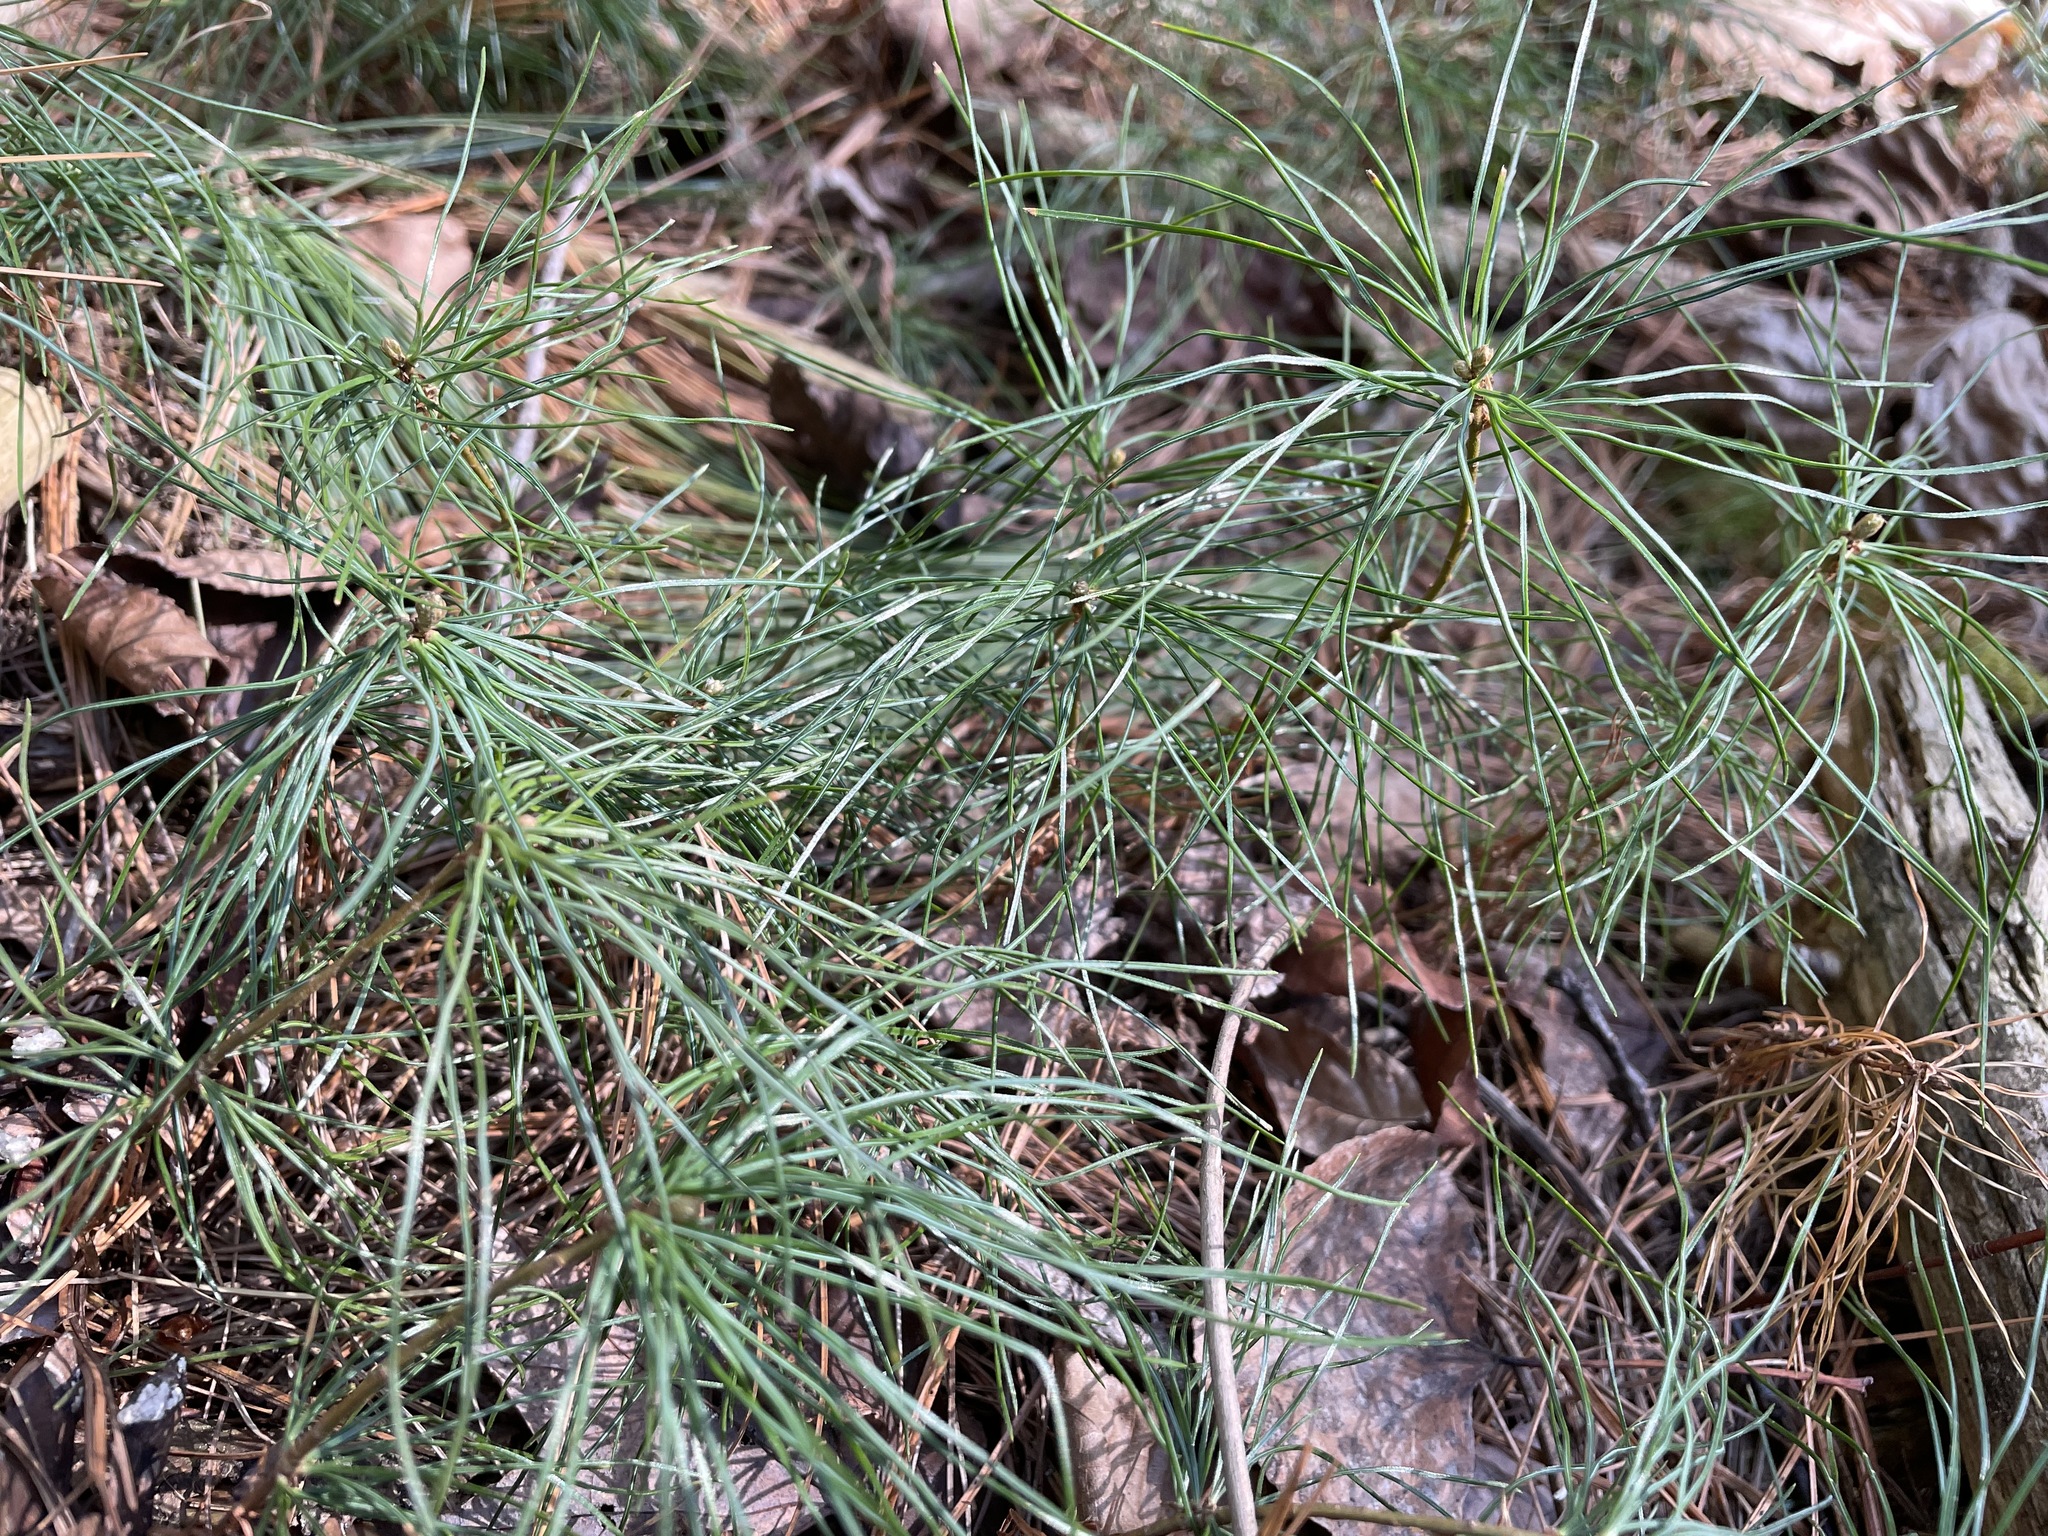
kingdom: Plantae
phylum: Tracheophyta
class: Pinopsida
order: Pinales
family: Pinaceae
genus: Pinus
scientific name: Pinus strobus
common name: Weymouth pine
